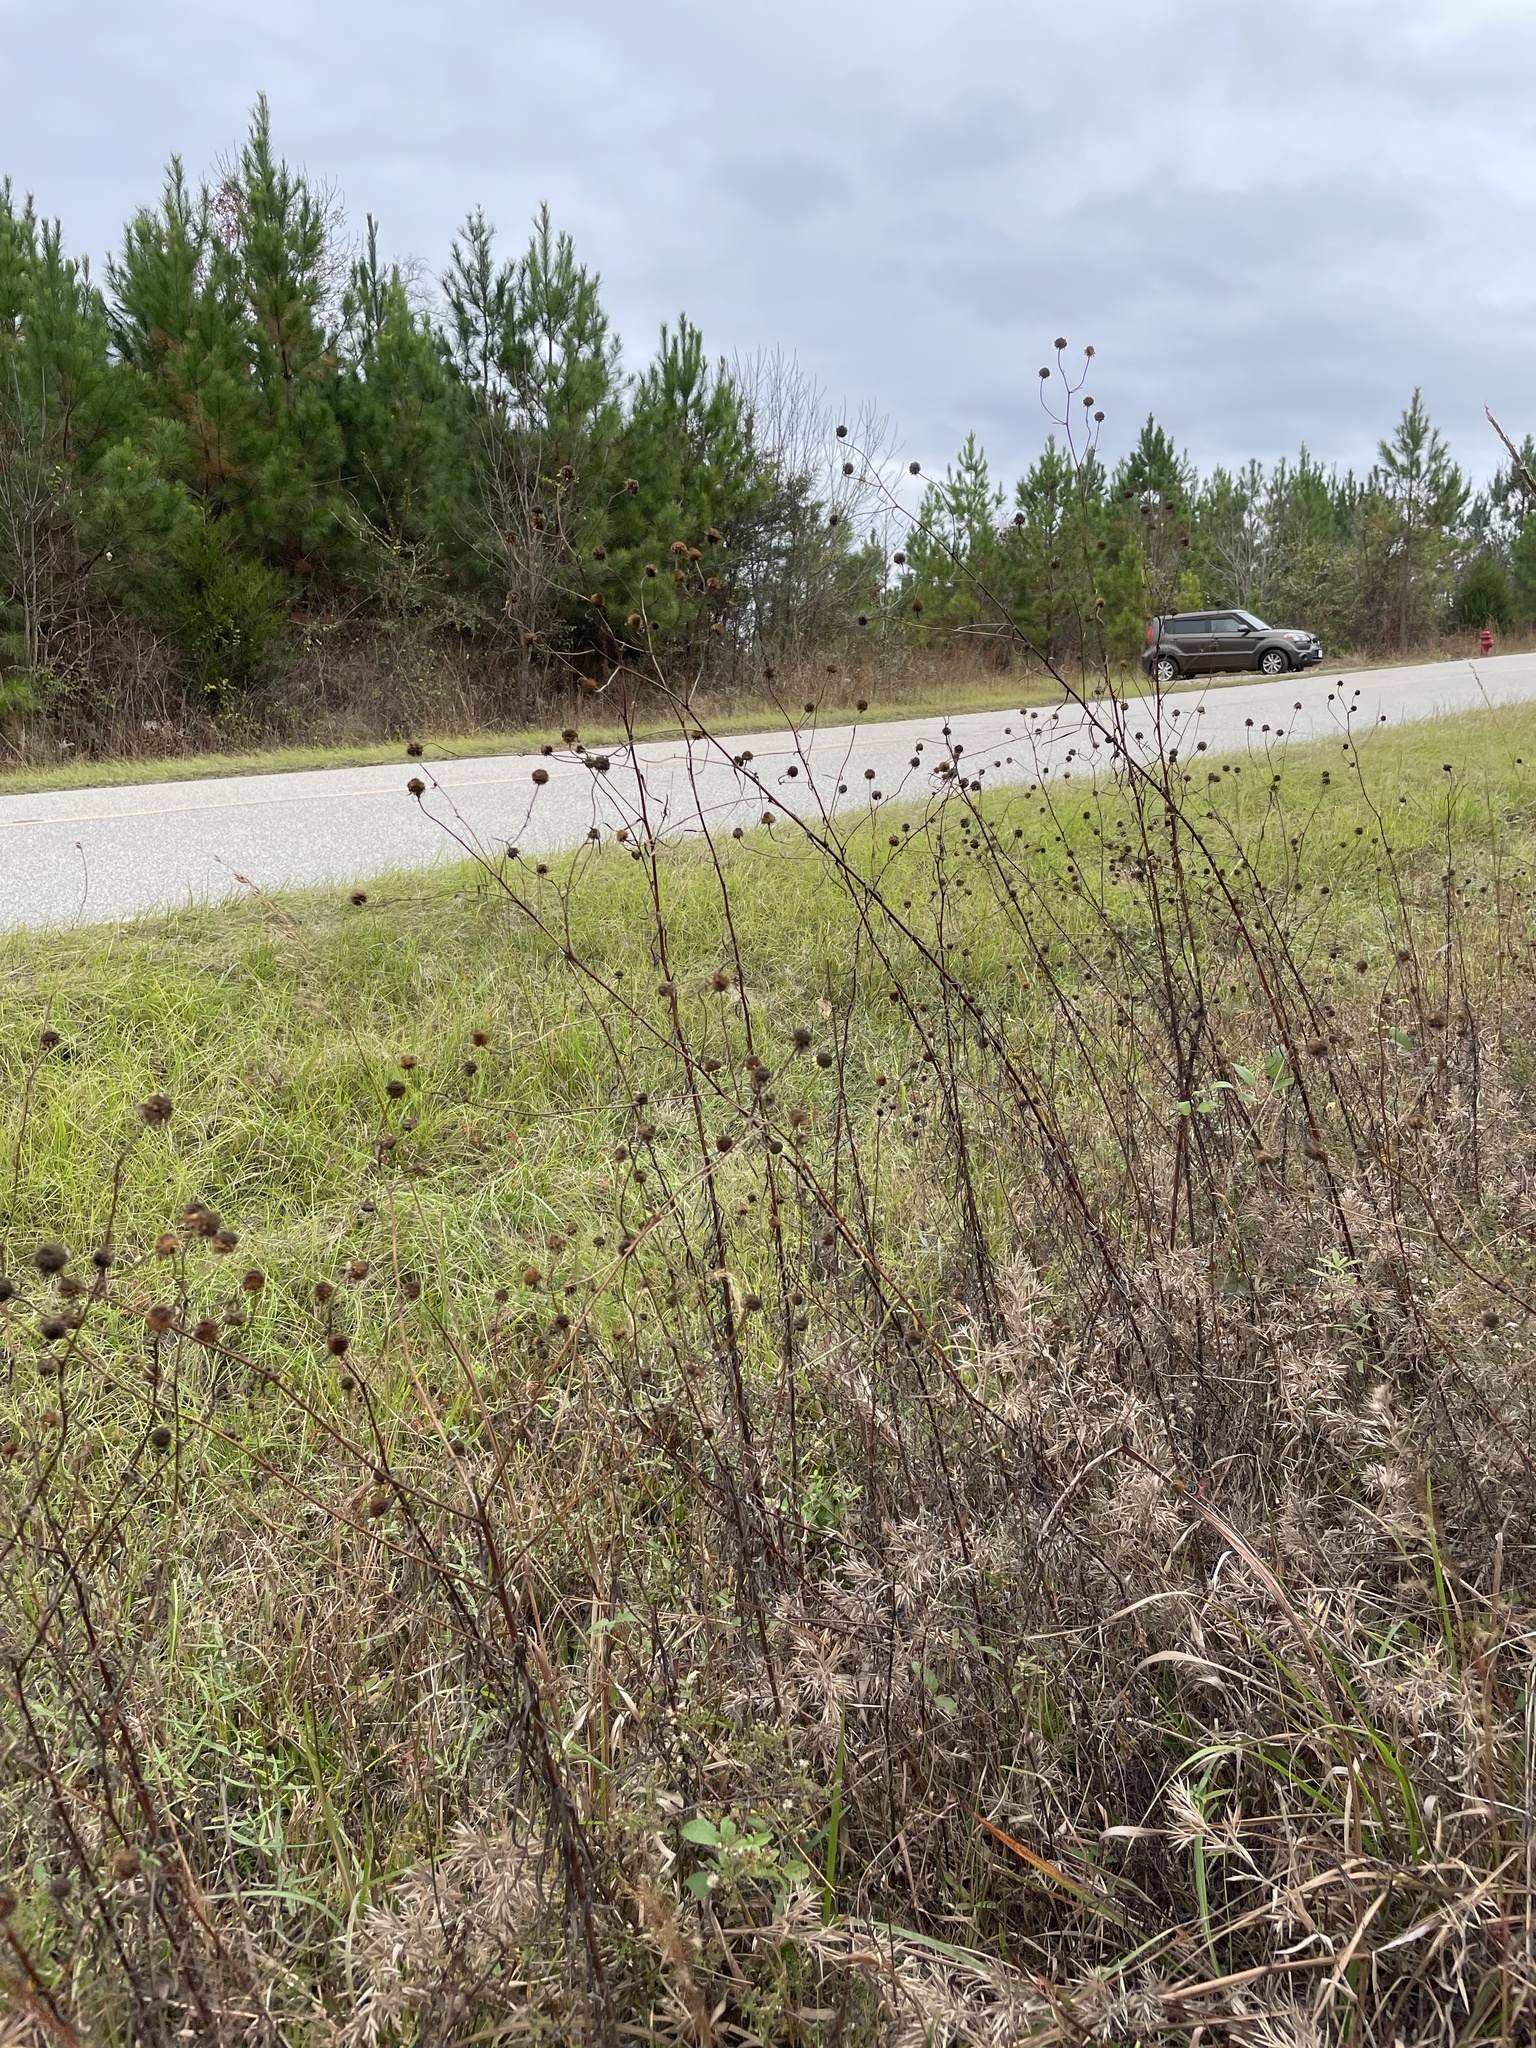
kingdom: Plantae
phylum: Tracheophyta
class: Magnoliopsida
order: Asterales
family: Asteraceae
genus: Helianthus
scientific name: Helianthus angustifolius
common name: Swamp sunflower
